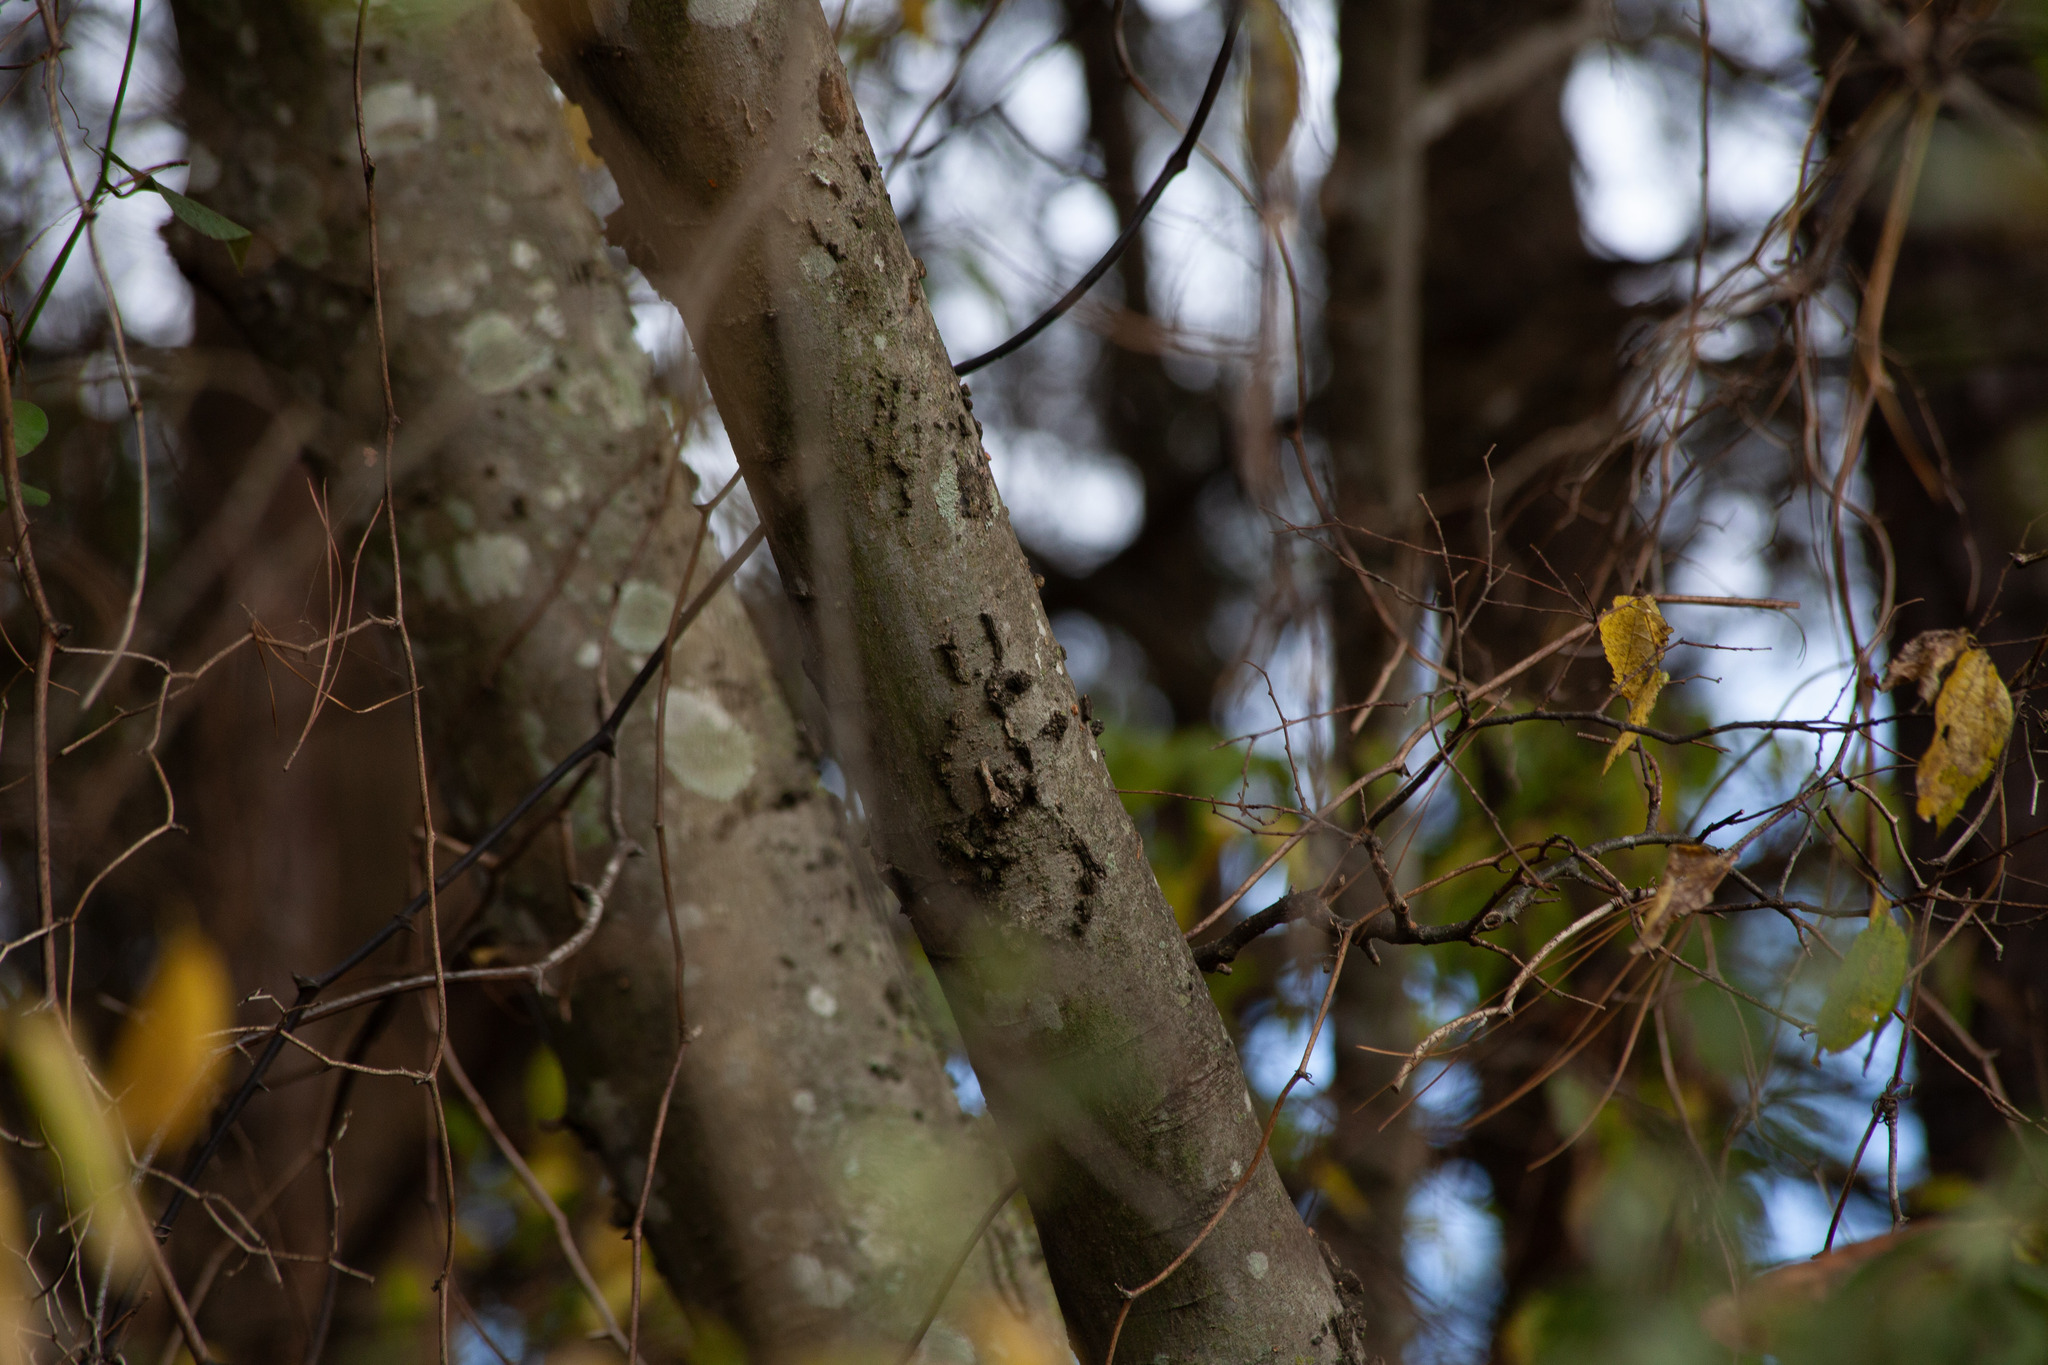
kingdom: Plantae
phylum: Tracheophyta
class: Magnoliopsida
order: Rosales
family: Cannabaceae
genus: Celtis
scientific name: Celtis laevigata
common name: Sugarberry
